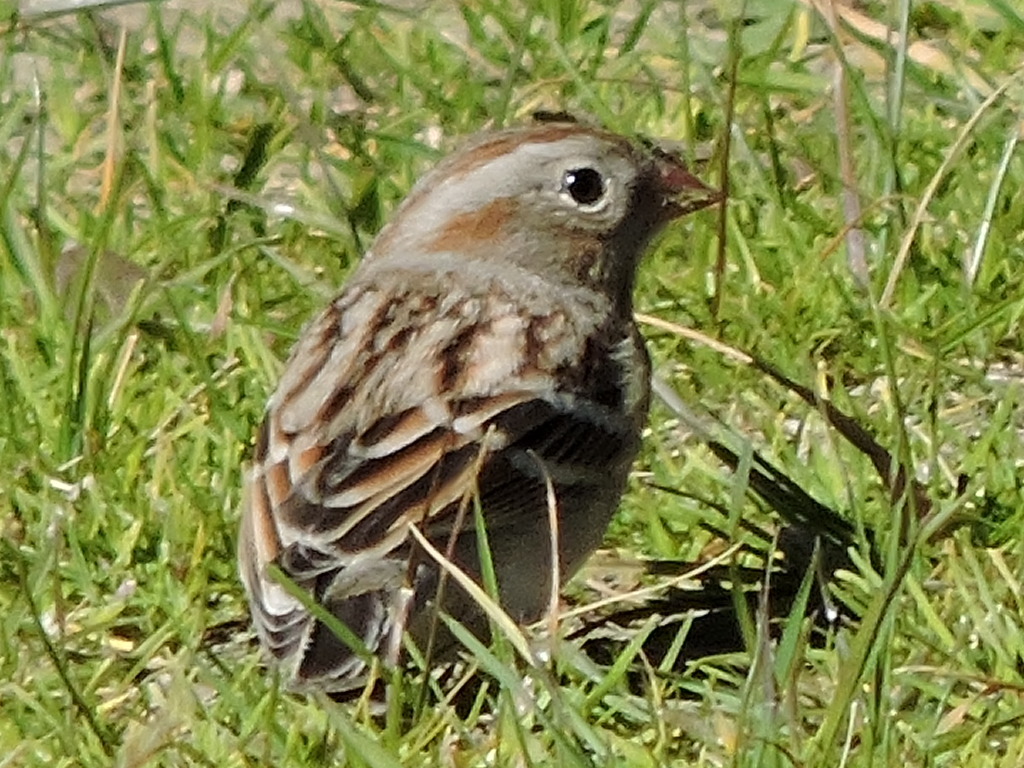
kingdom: Animalia
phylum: Chordata
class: Aves
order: Passeriformes
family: Passerellidae
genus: Spizella
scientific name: Spizella pusilla
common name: Field sparrow
